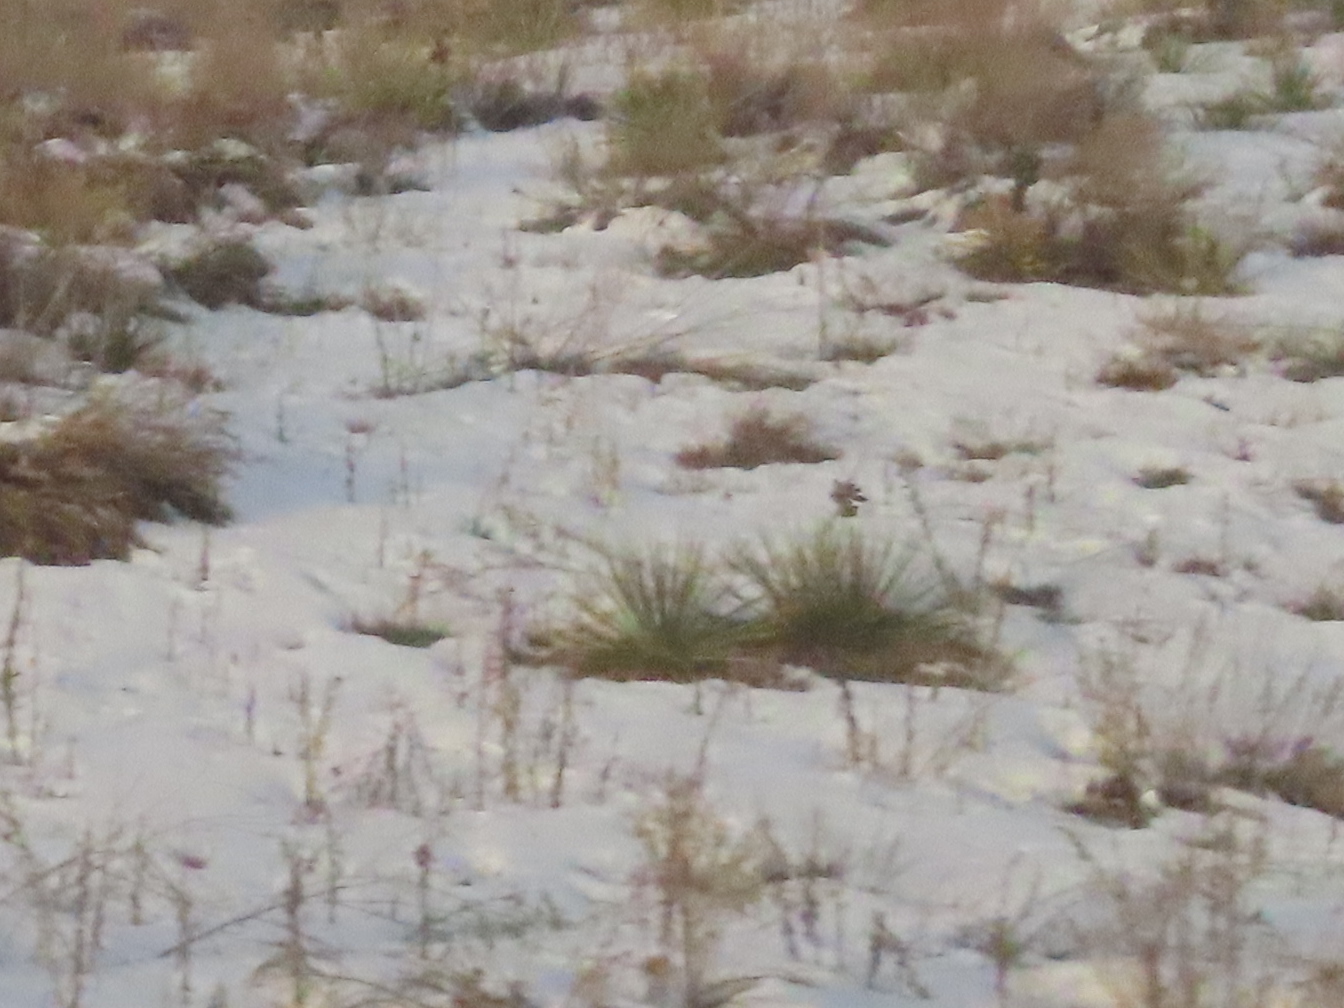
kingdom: Plantae
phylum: Tracheophyta
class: Liliopsida
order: Asparagales
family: Asparagaceae
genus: Yucca
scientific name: Yucca glauca
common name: Great plains yucca
